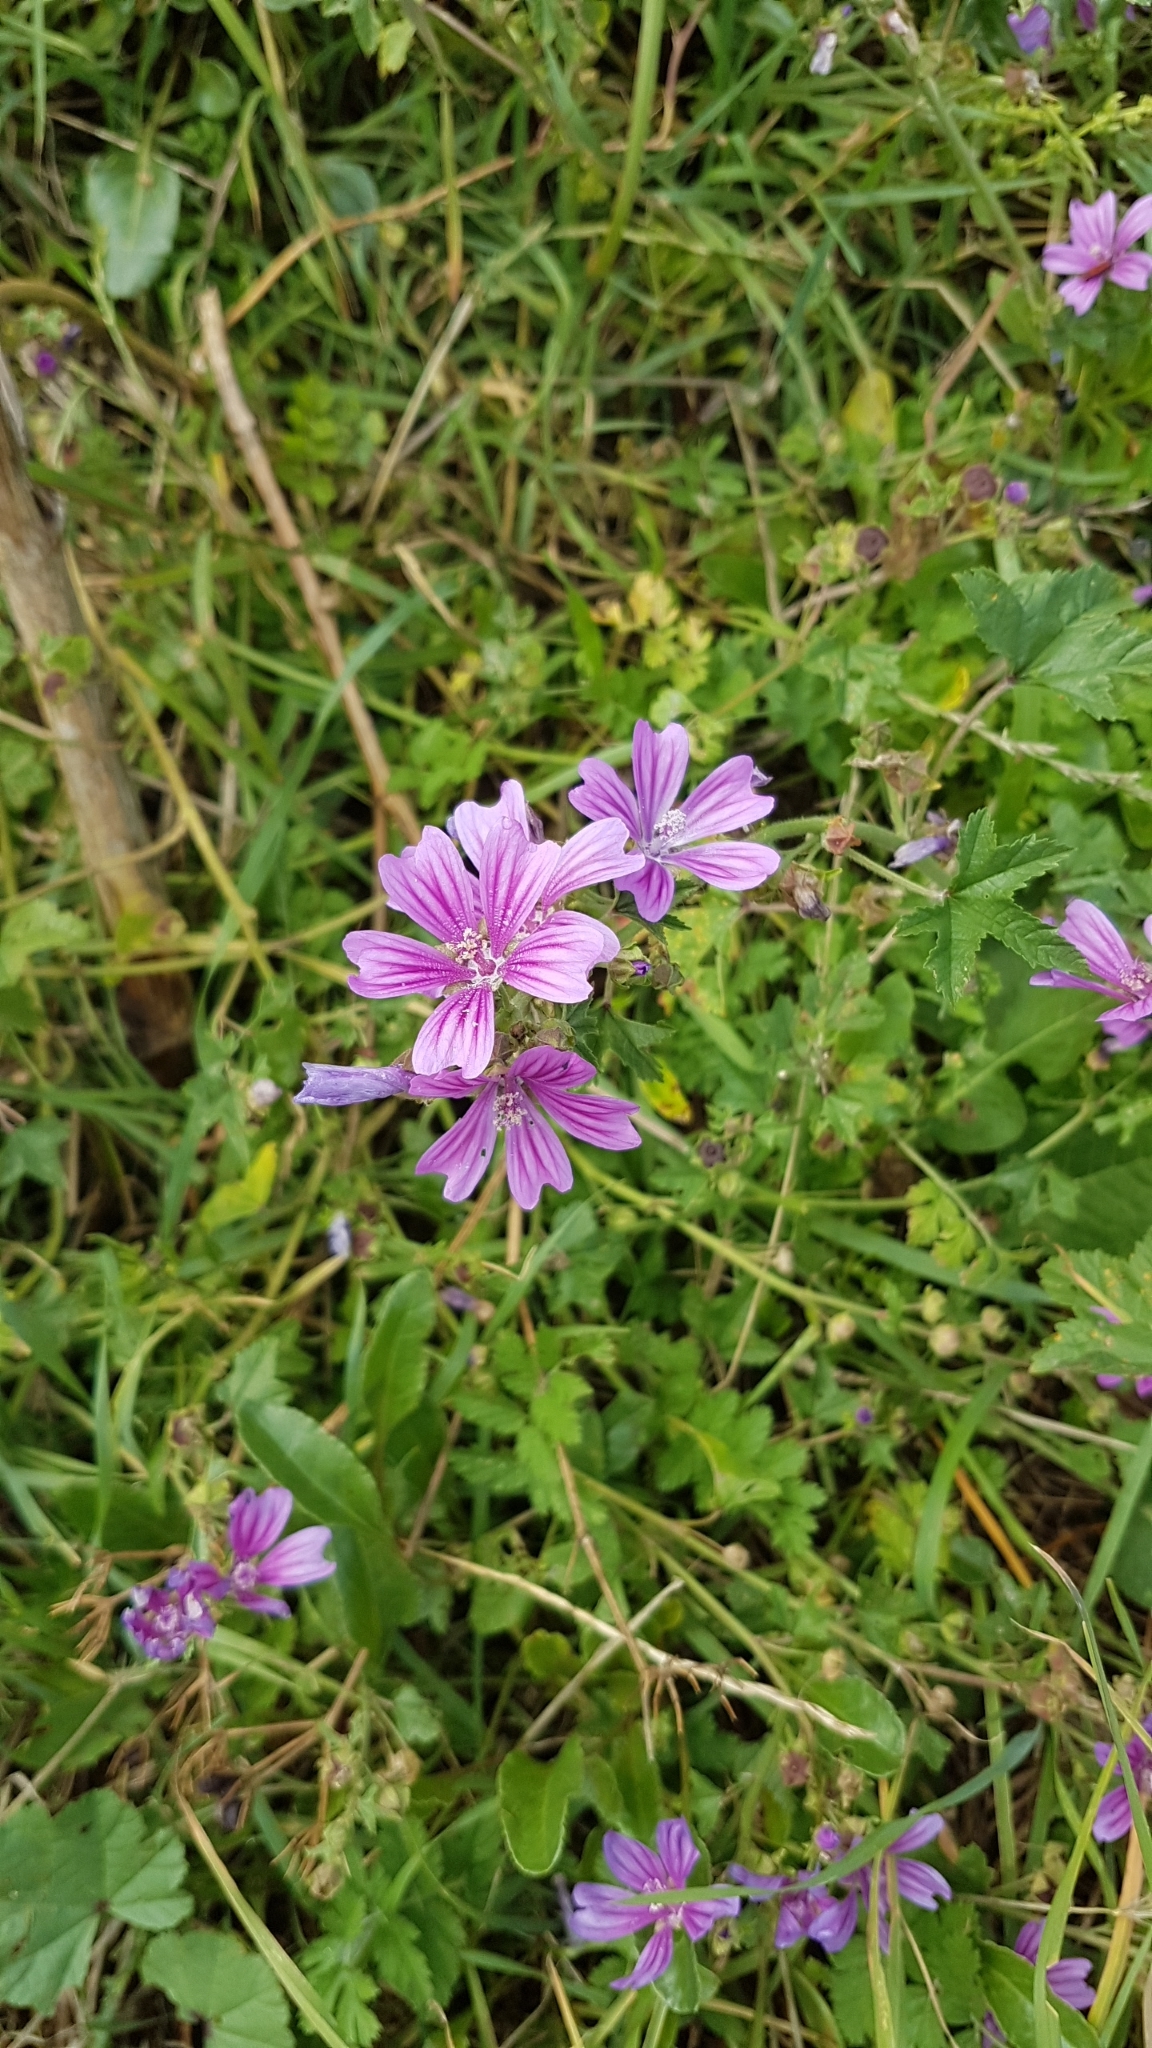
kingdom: Plantae
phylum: Tracheophyta
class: Magnoliopsida
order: Malvales
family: Malvaceae
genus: Malva
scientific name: Malva sylvestris
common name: Common mallow
